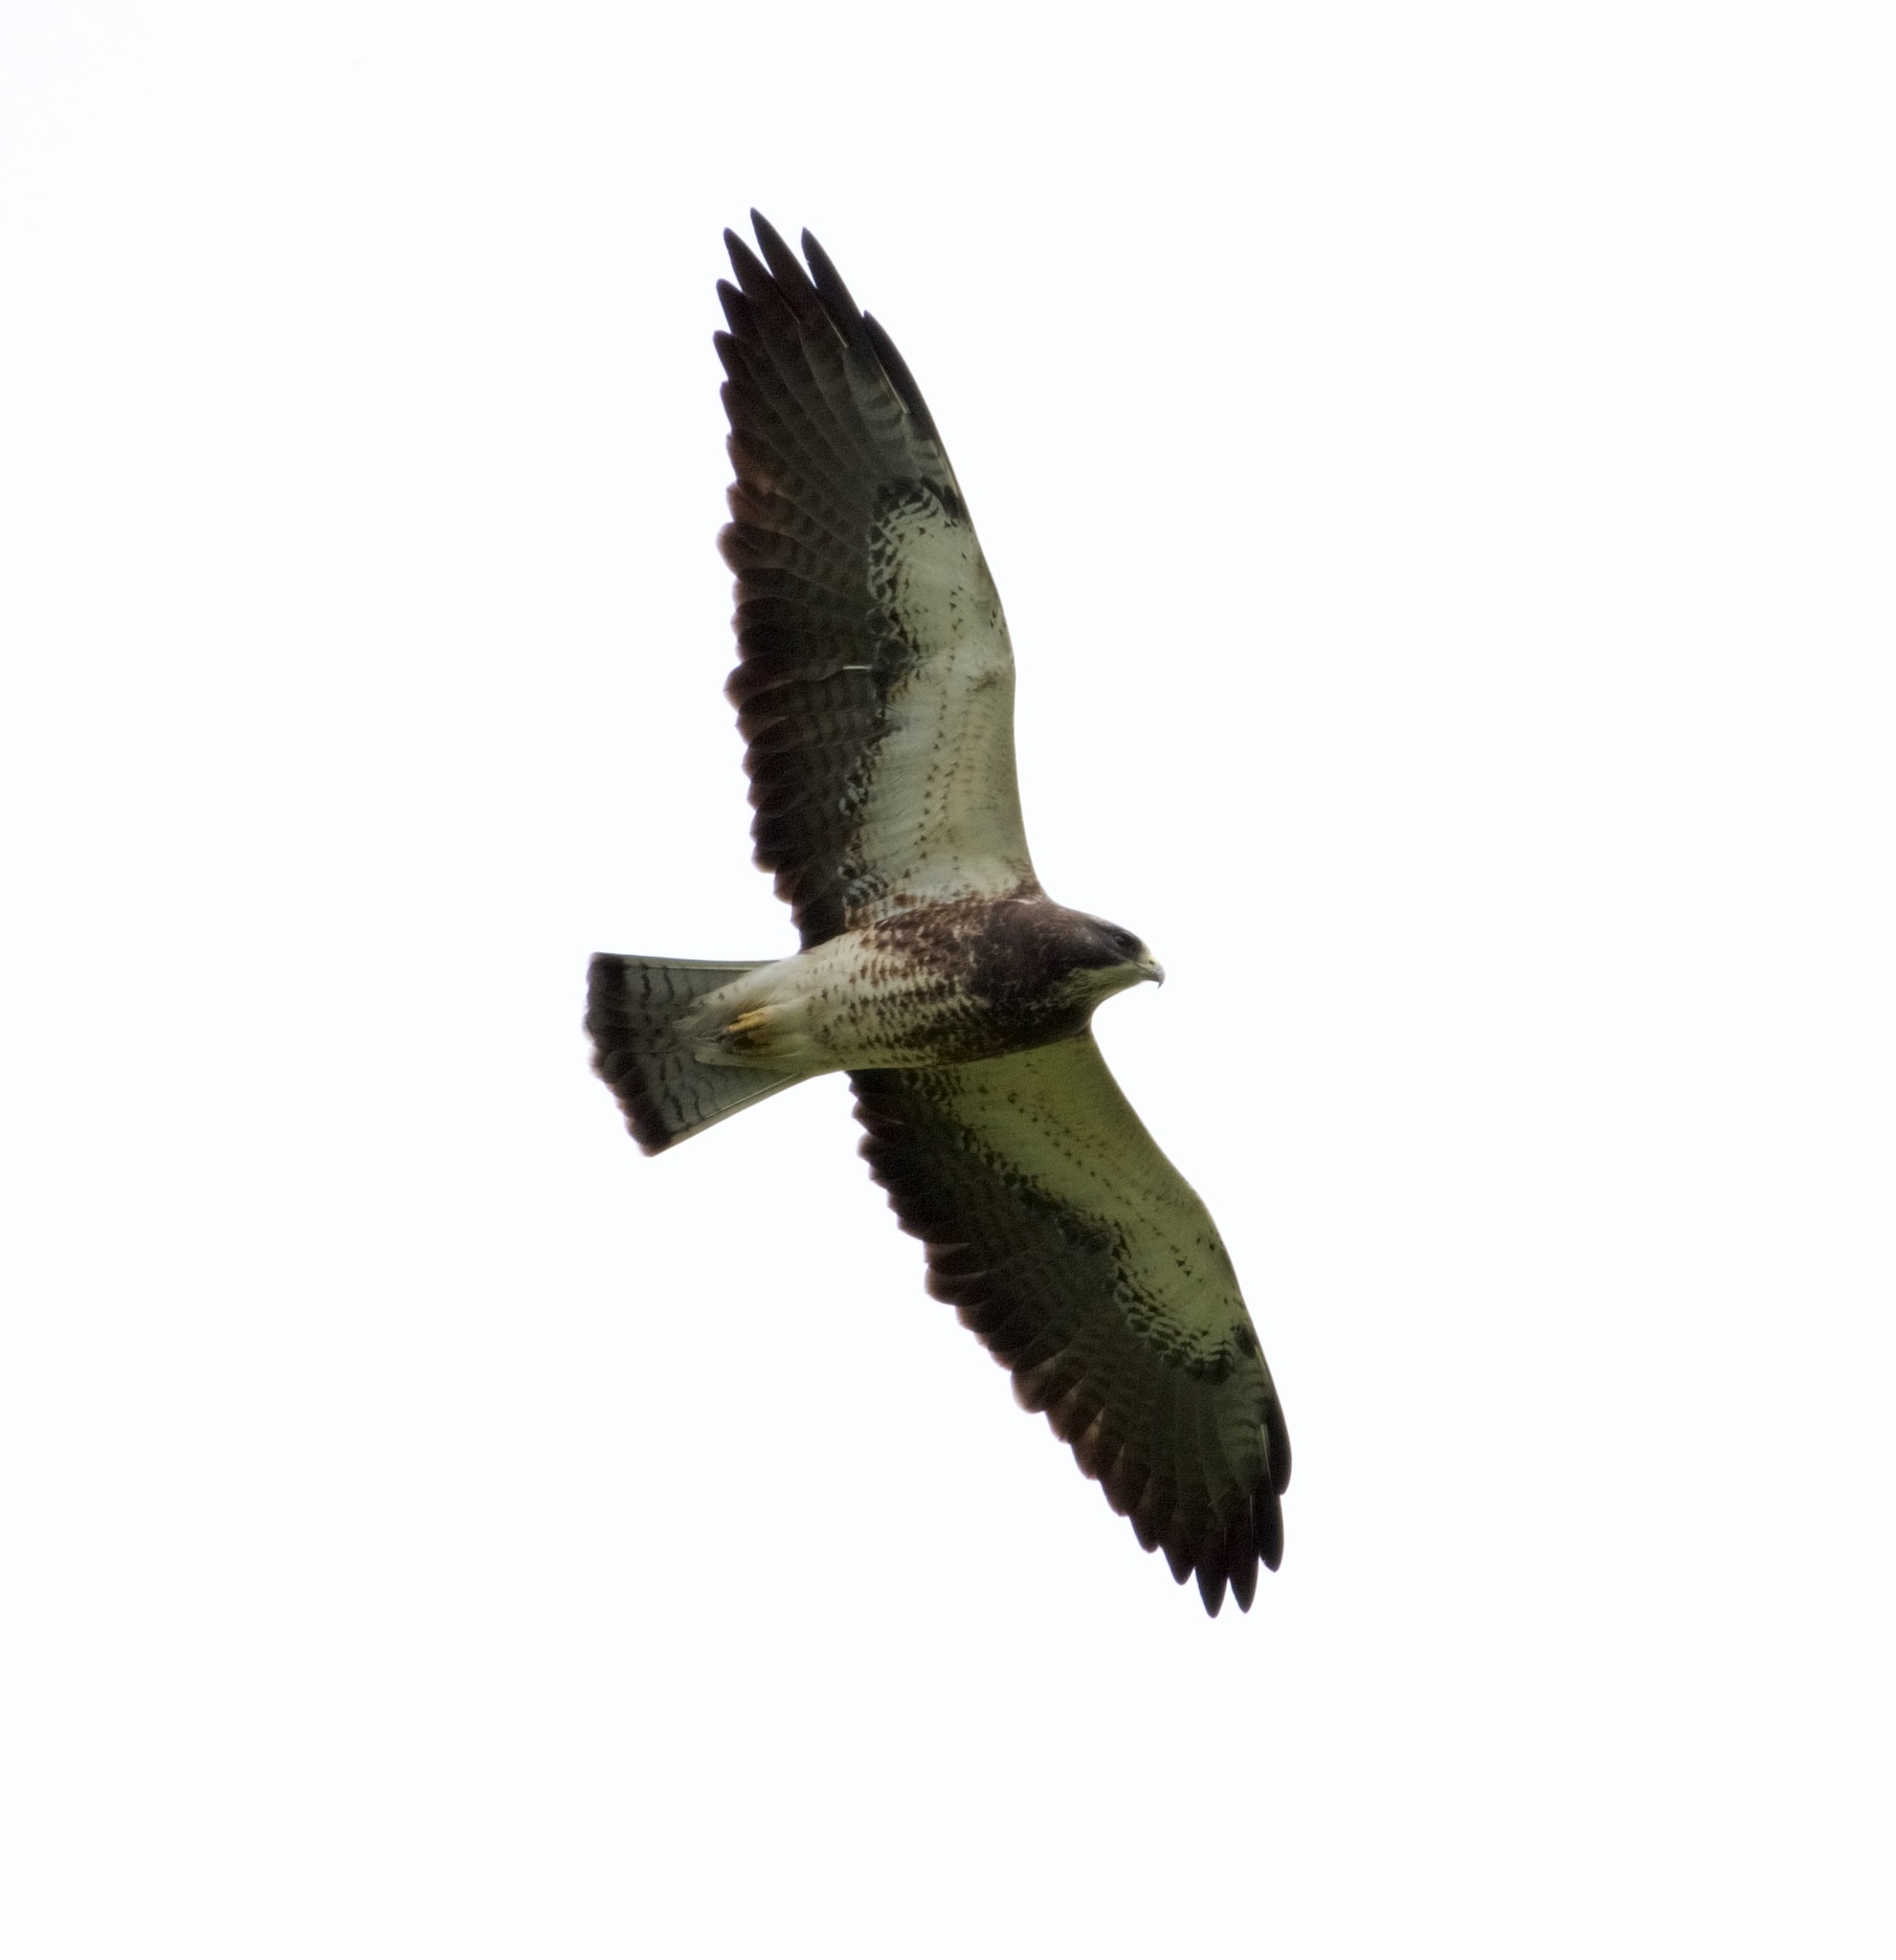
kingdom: Animalia
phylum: Chordata
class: Aves
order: Accipitriformes
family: Accipitridae
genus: Buteo
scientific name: Buteo swainsoni
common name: Swainson's hawk
